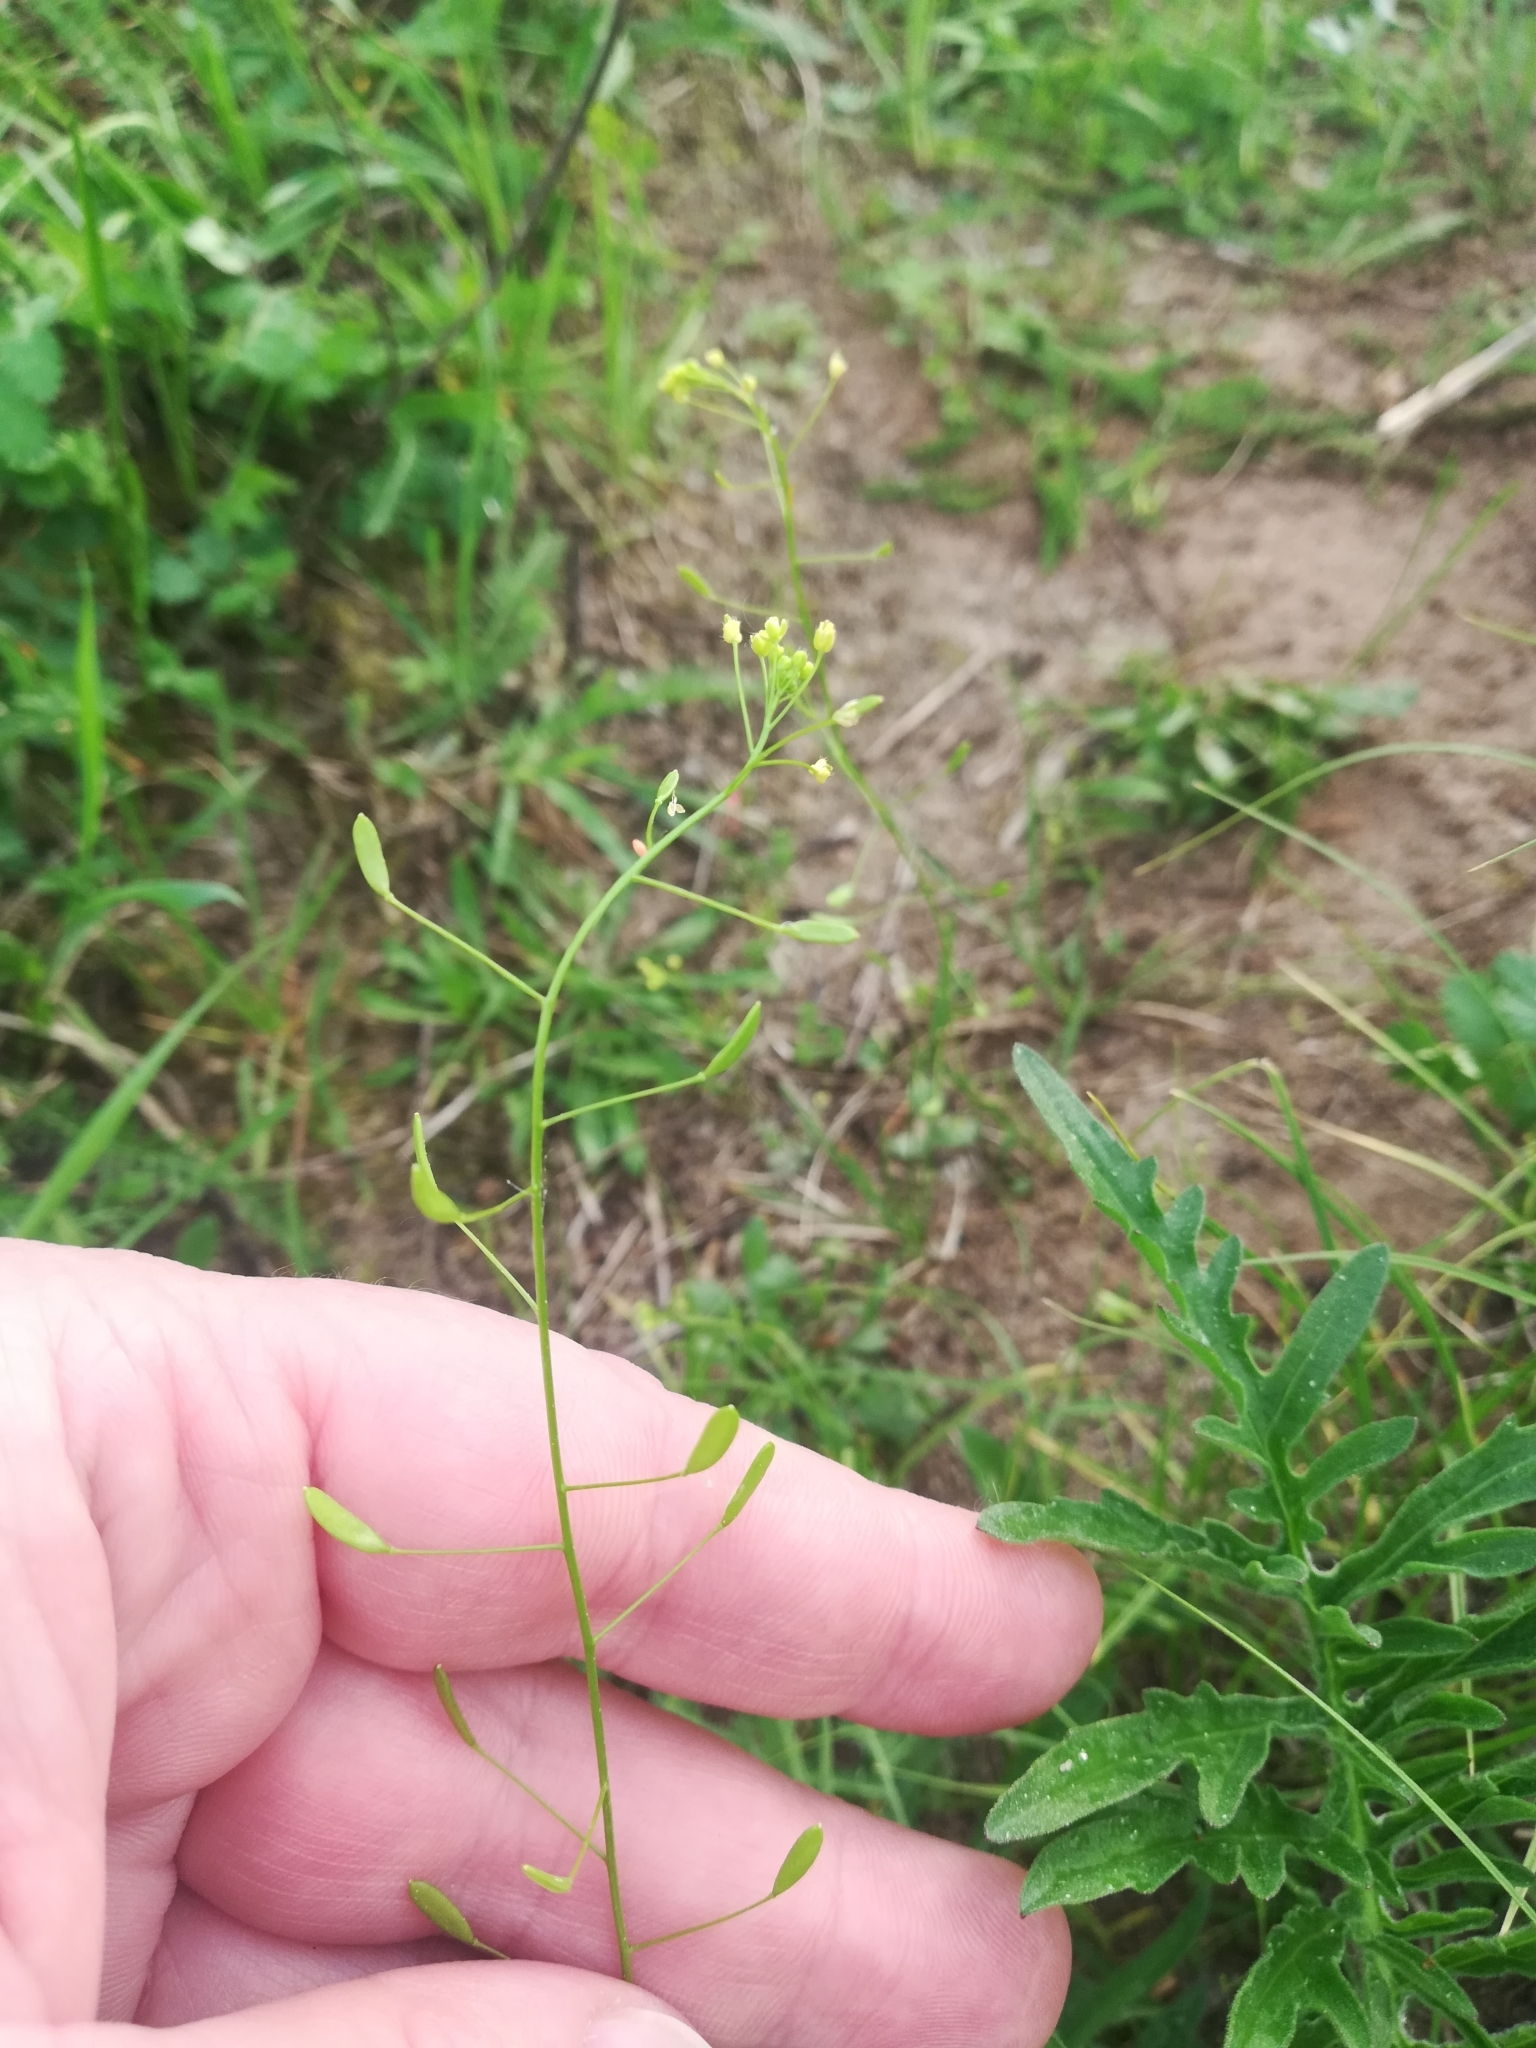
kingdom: Plantae
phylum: Tracheophyta
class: Magnoliopsida
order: Brassicales
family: Brassicaceae
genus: Draba
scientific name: Draba nemorosa
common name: Wood whitlow-grass
